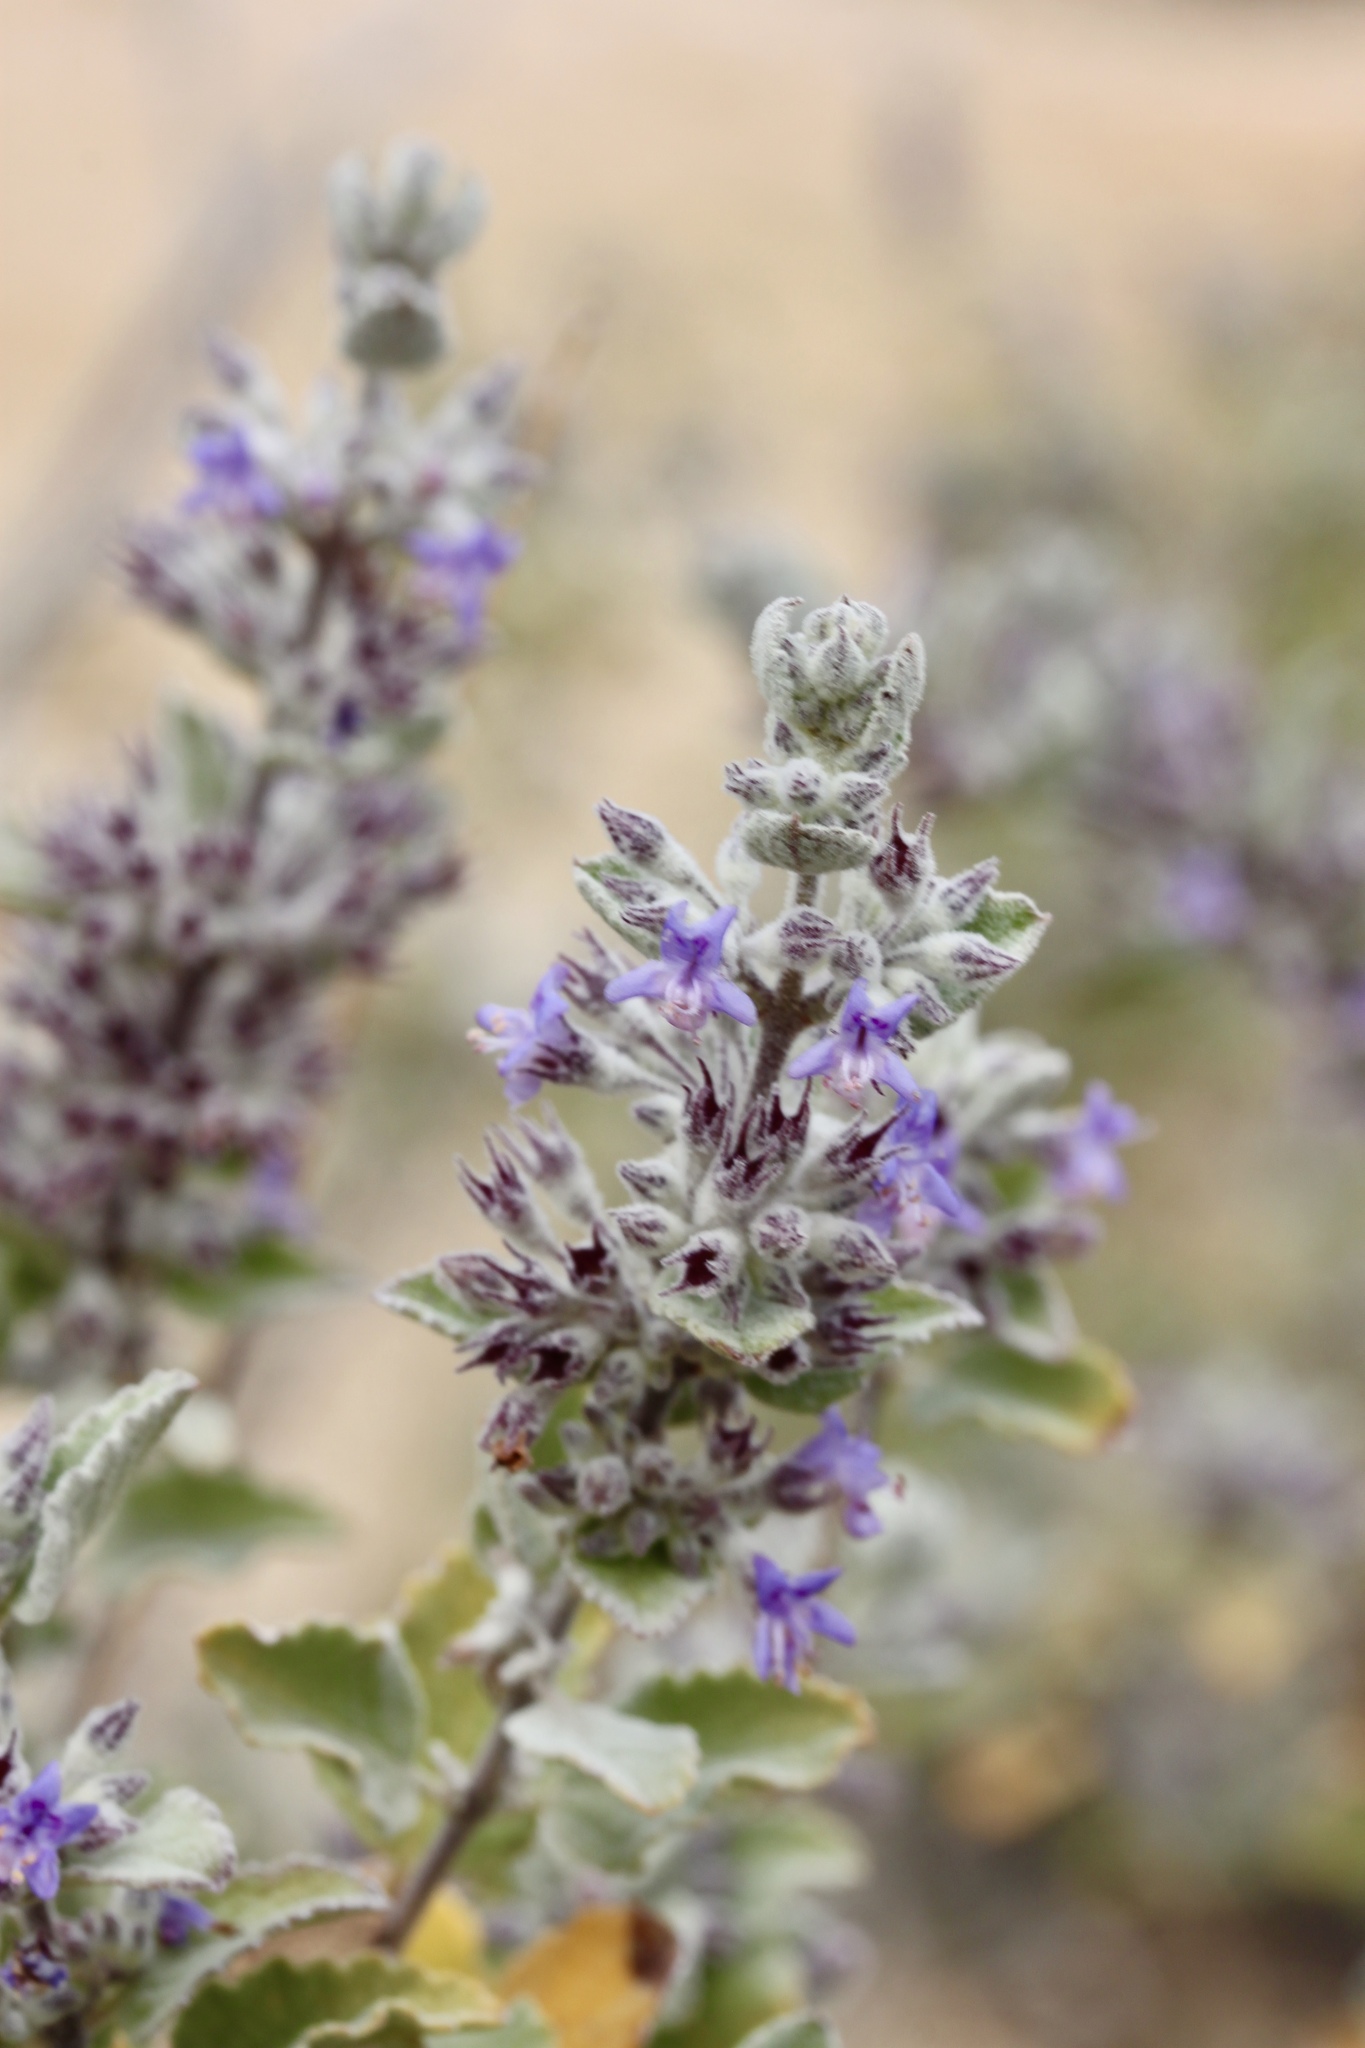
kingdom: Plantae
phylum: Tracheophyta
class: Magnoliopsida
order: Lamiales
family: Lamiaceae
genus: Condea
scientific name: Condea emoryi
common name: Chia
